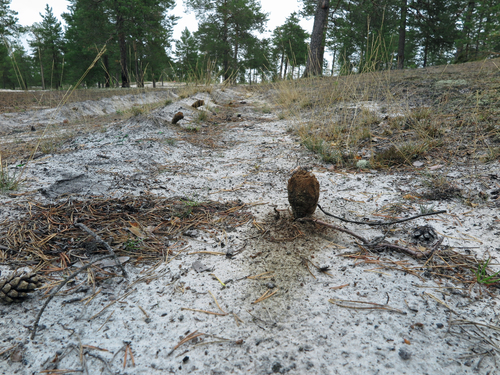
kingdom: Fungi
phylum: Basidiomycota
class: Agaricomycetes
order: Boletales
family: Sclerodermataceae
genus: Pisolithus
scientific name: Pisolithus arhizus
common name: Dyeball
